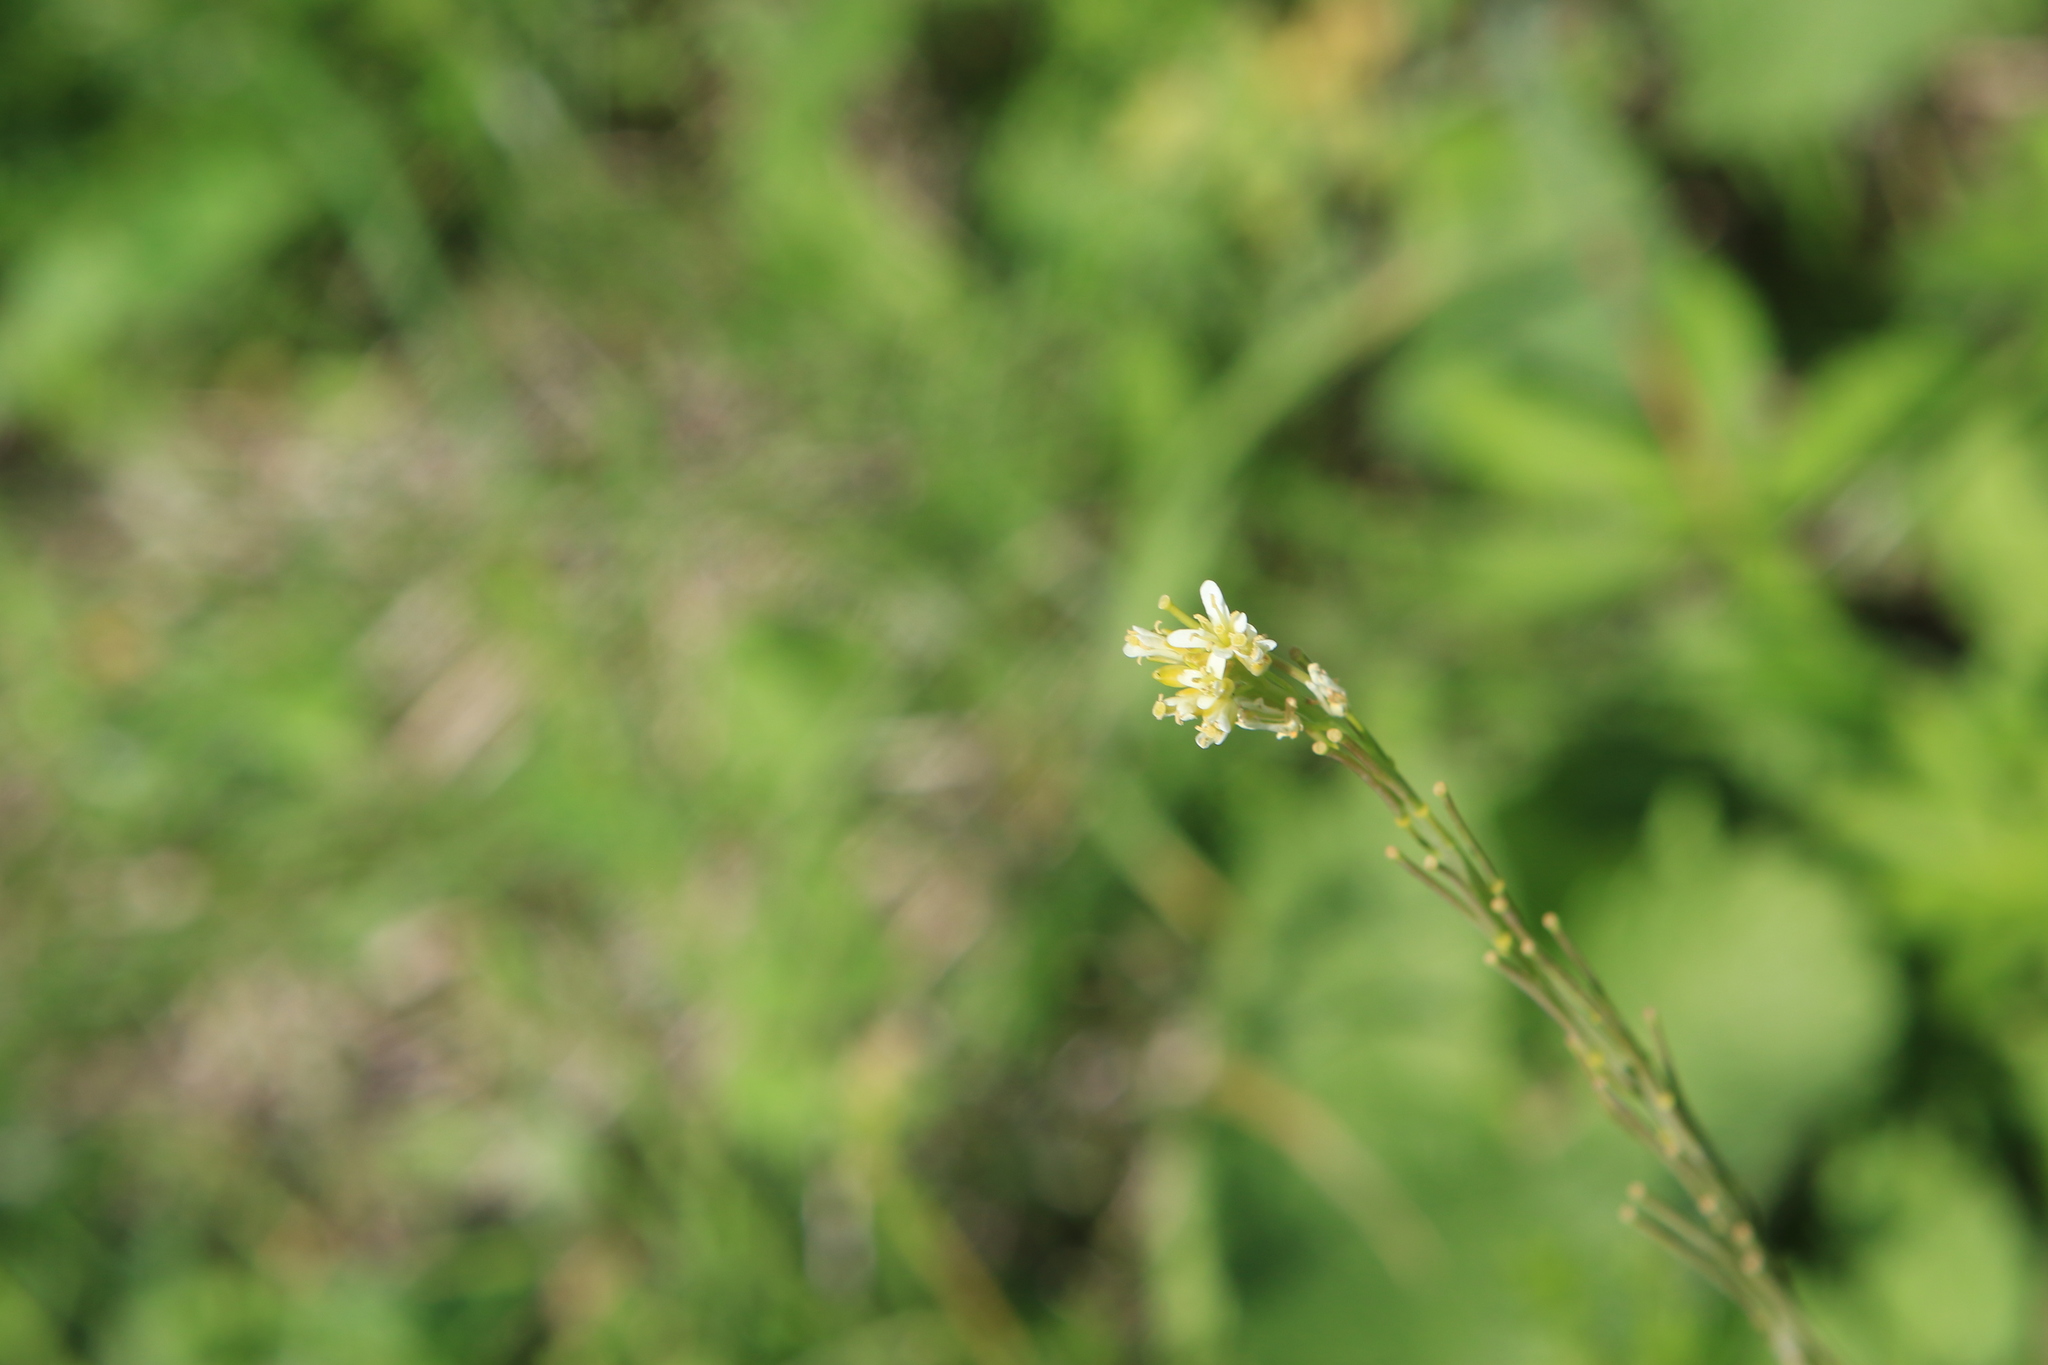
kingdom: Plantae
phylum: Tracheophyta
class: Magnoliopsida
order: Brassicales
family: Brassicaceae
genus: Turritis
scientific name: Turritis glabra
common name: Tower rockcress
